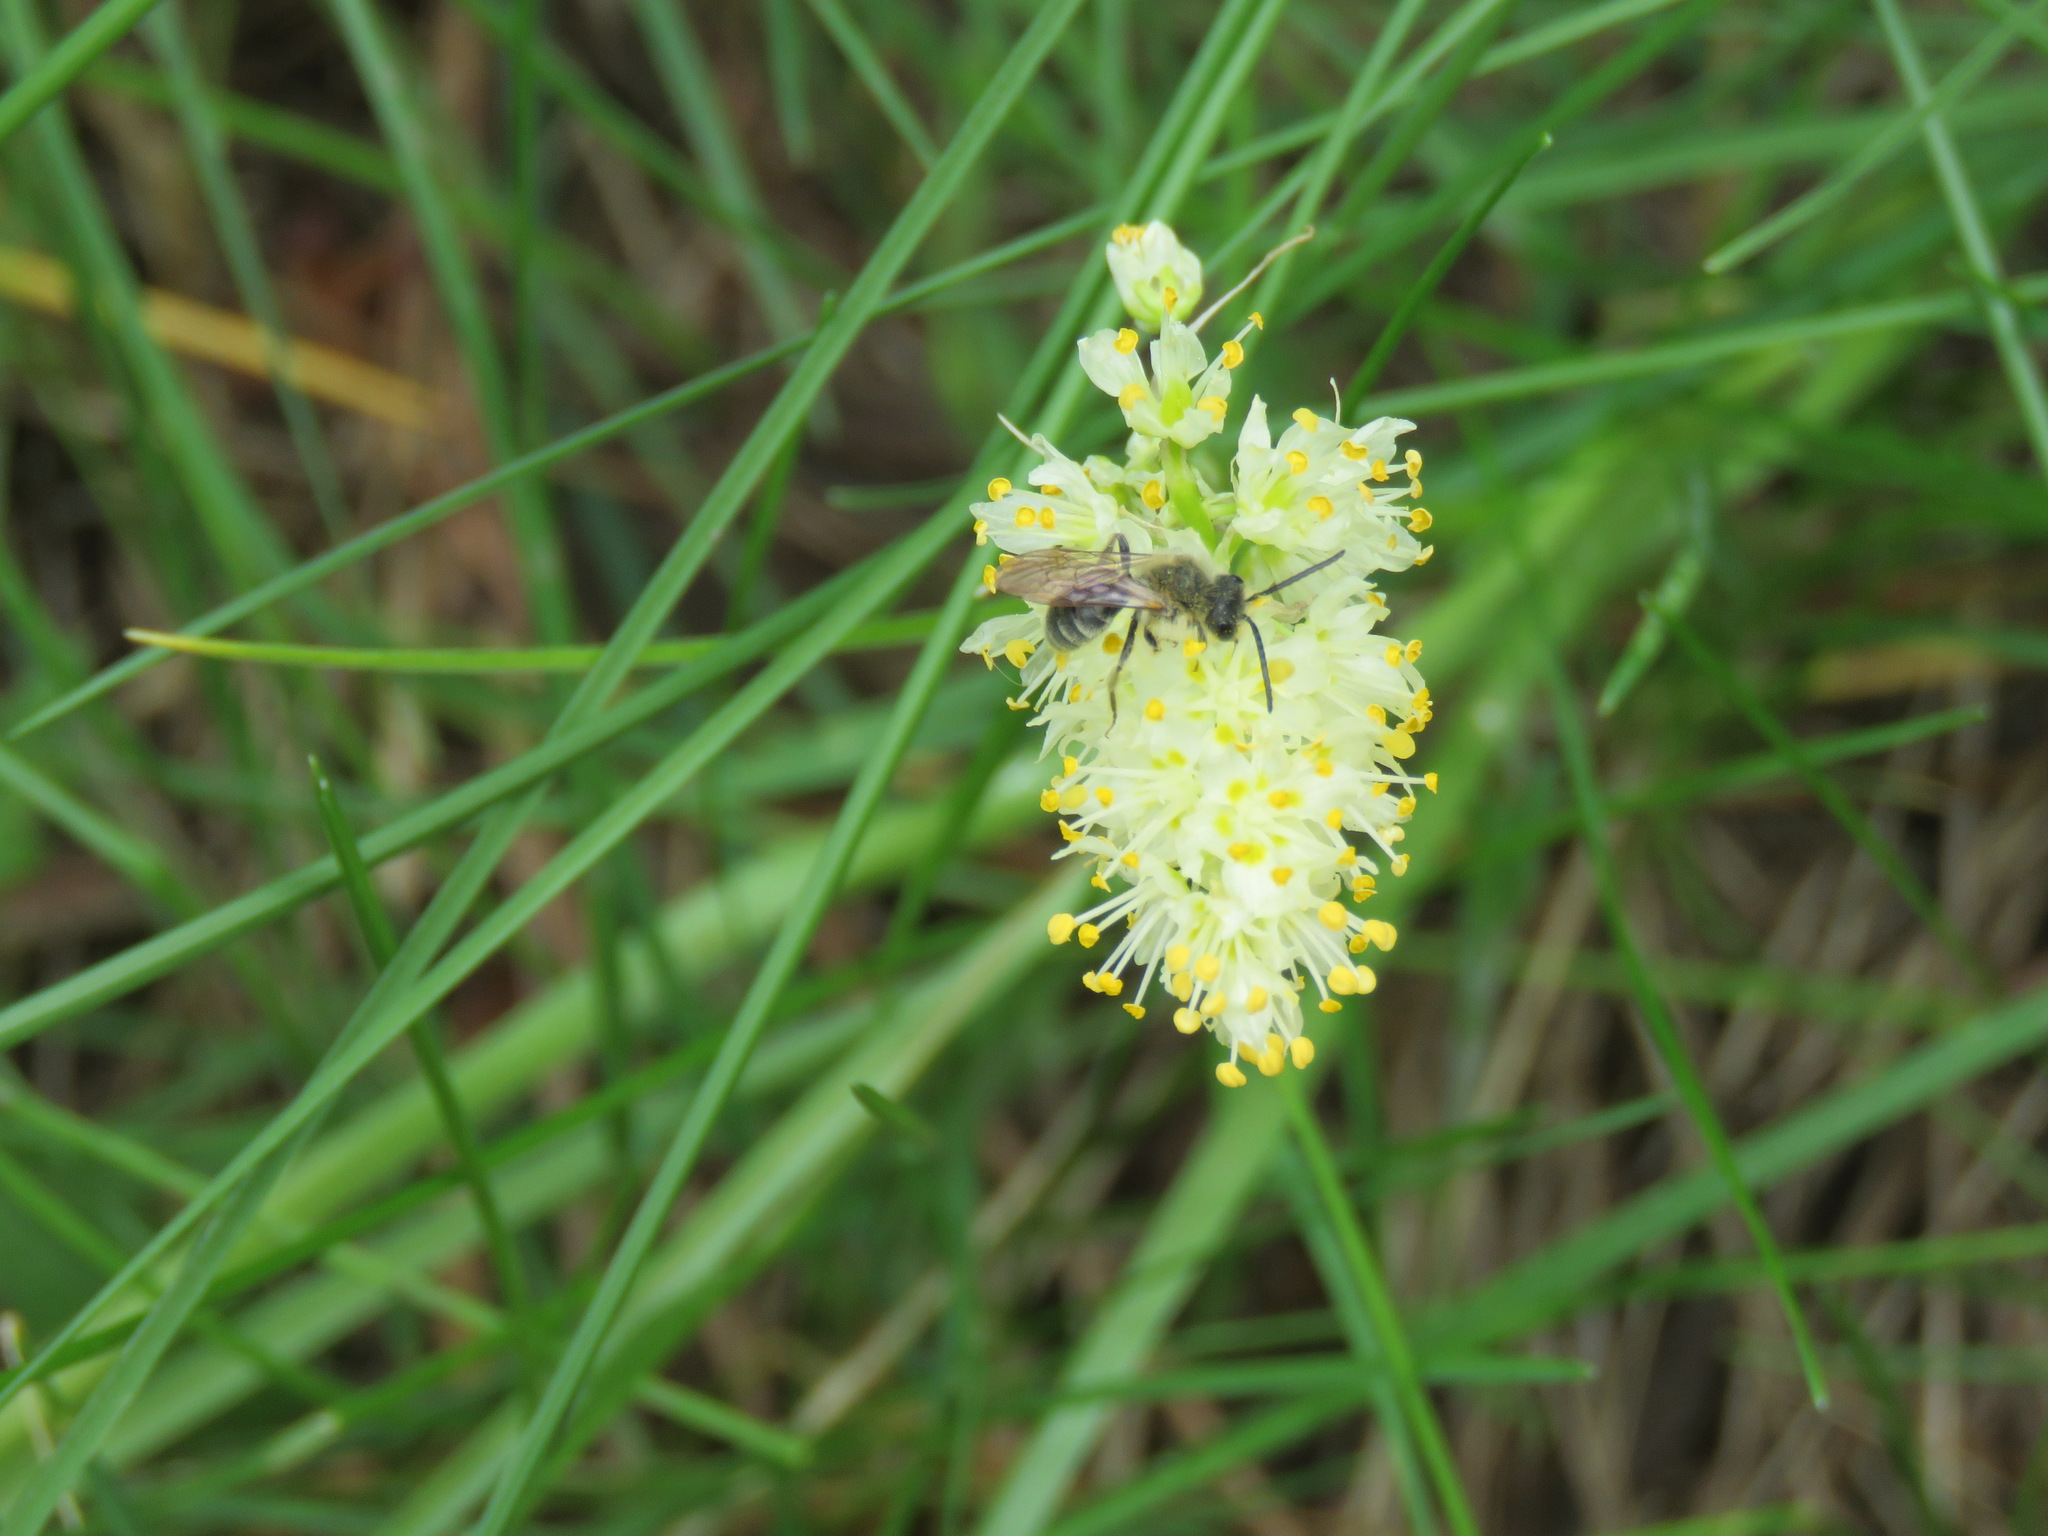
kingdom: Animalia
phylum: Arthropoda
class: Insecta
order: Hymenoptera
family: Andrenidae
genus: Andrena
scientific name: Andrena astragali
